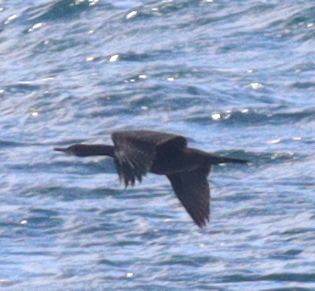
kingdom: Animalia
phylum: Chordata
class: Aves
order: Suliformes
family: Phalacrocoracidae
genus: Phalacrocorax
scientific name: Phalacrocorax aristotelis
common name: European shag
